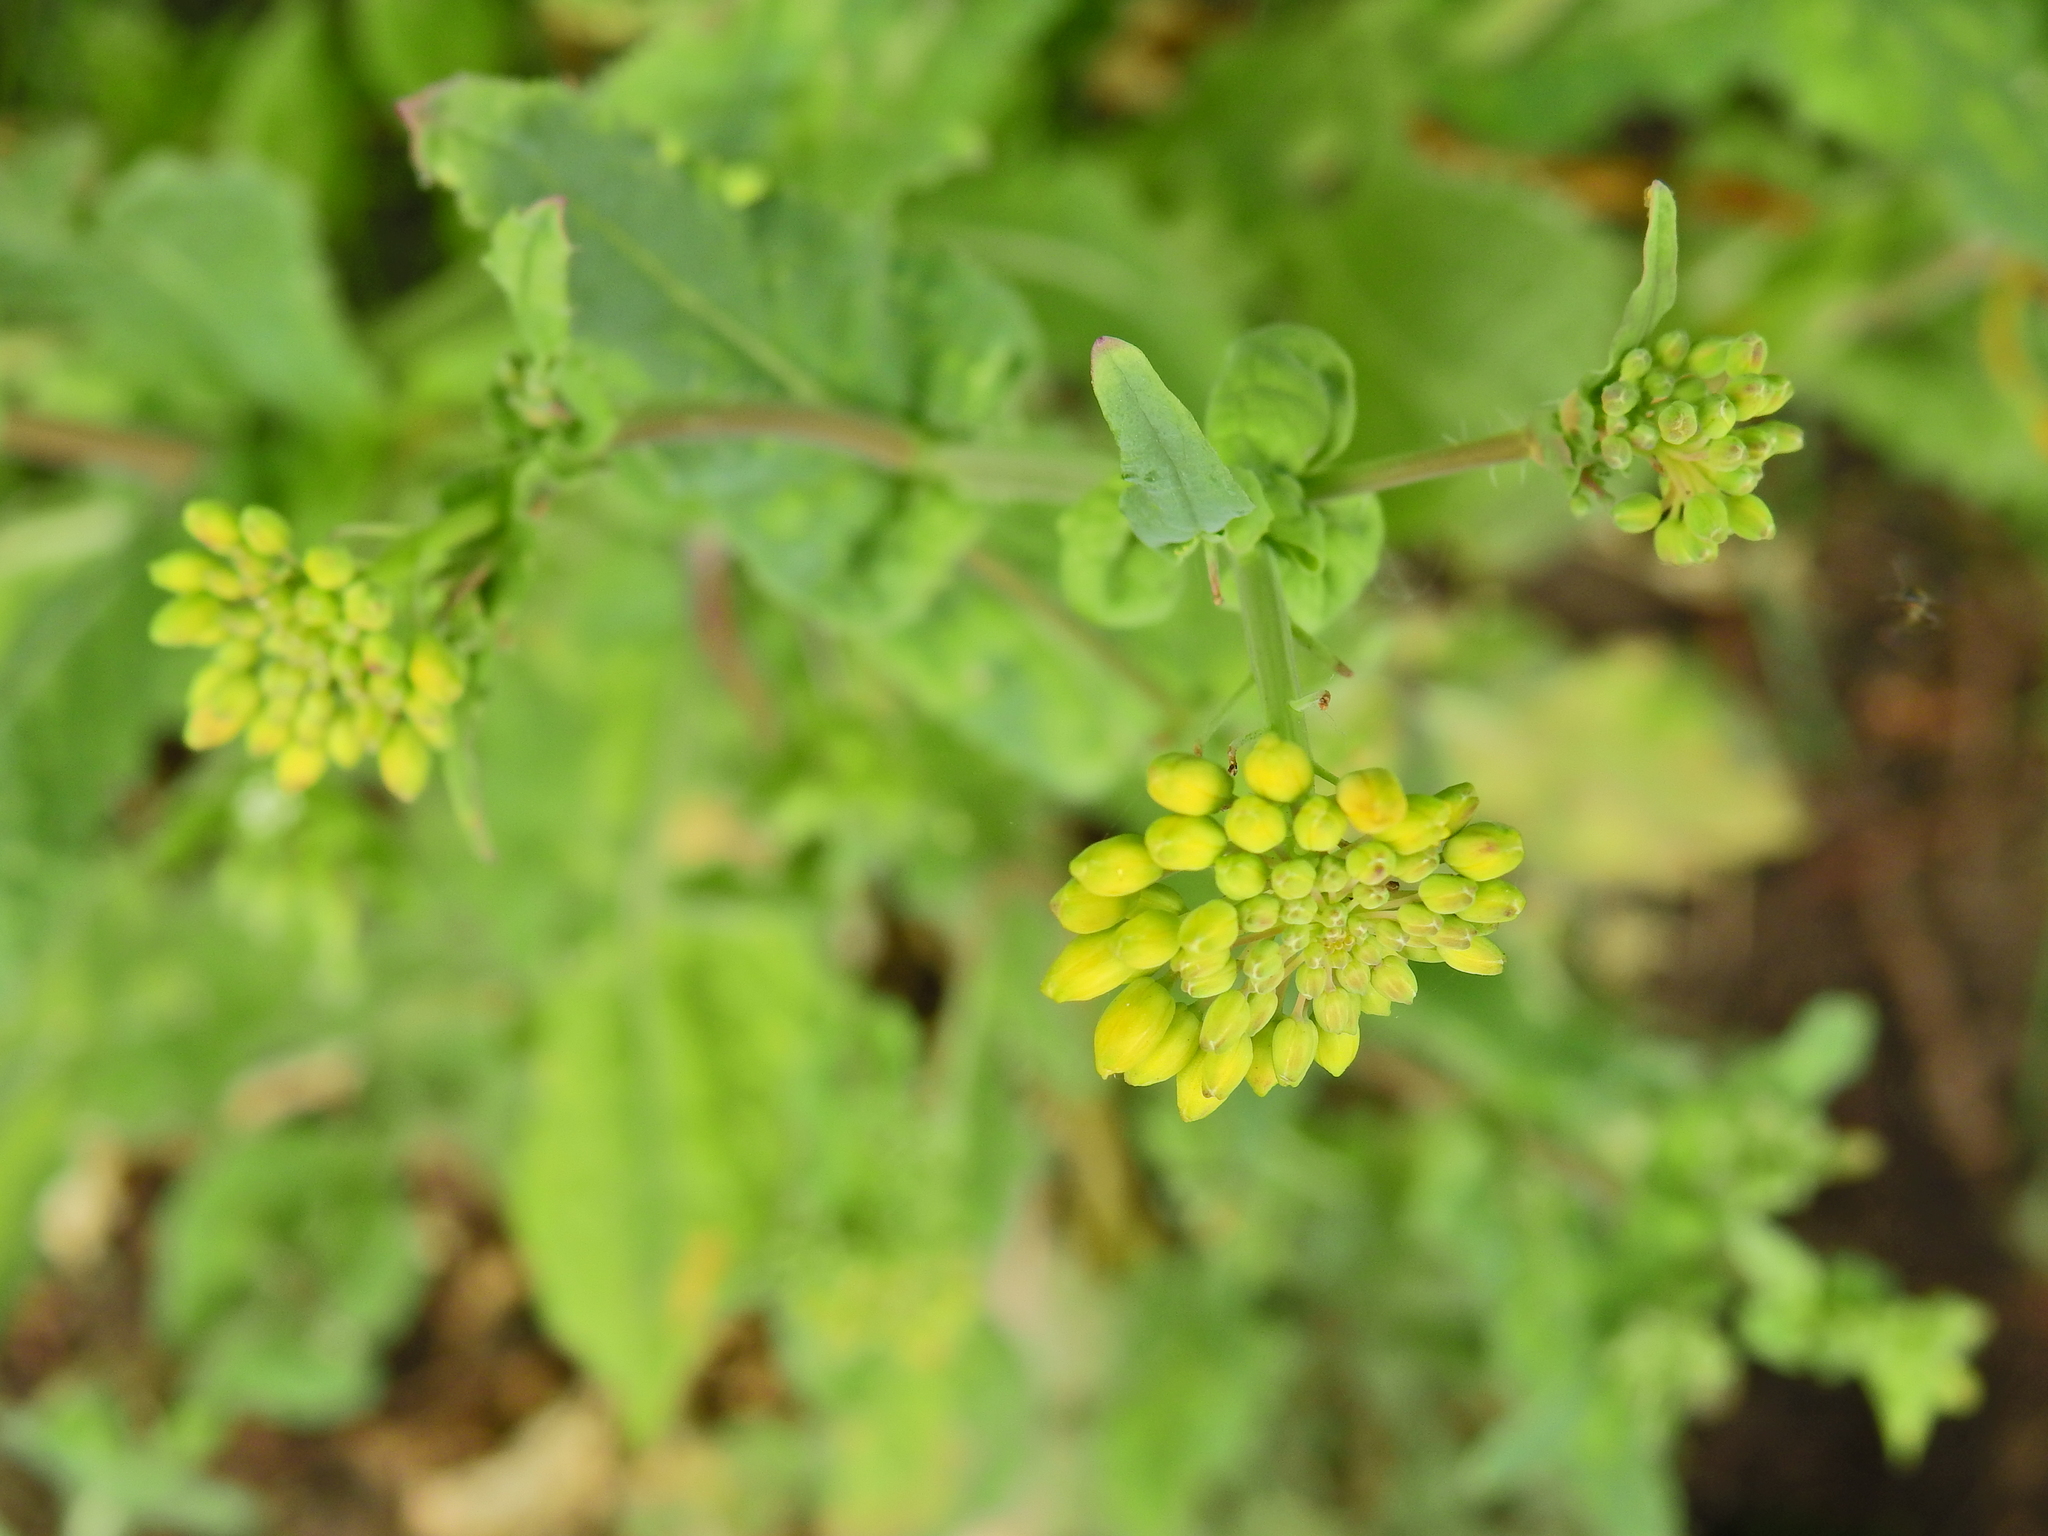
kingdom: Plantae
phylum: Tracheophyta
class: Magnoliopsida
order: Brassicales
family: Brassicaceae
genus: Brassica
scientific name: Brassica rapa
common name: Field mustard
